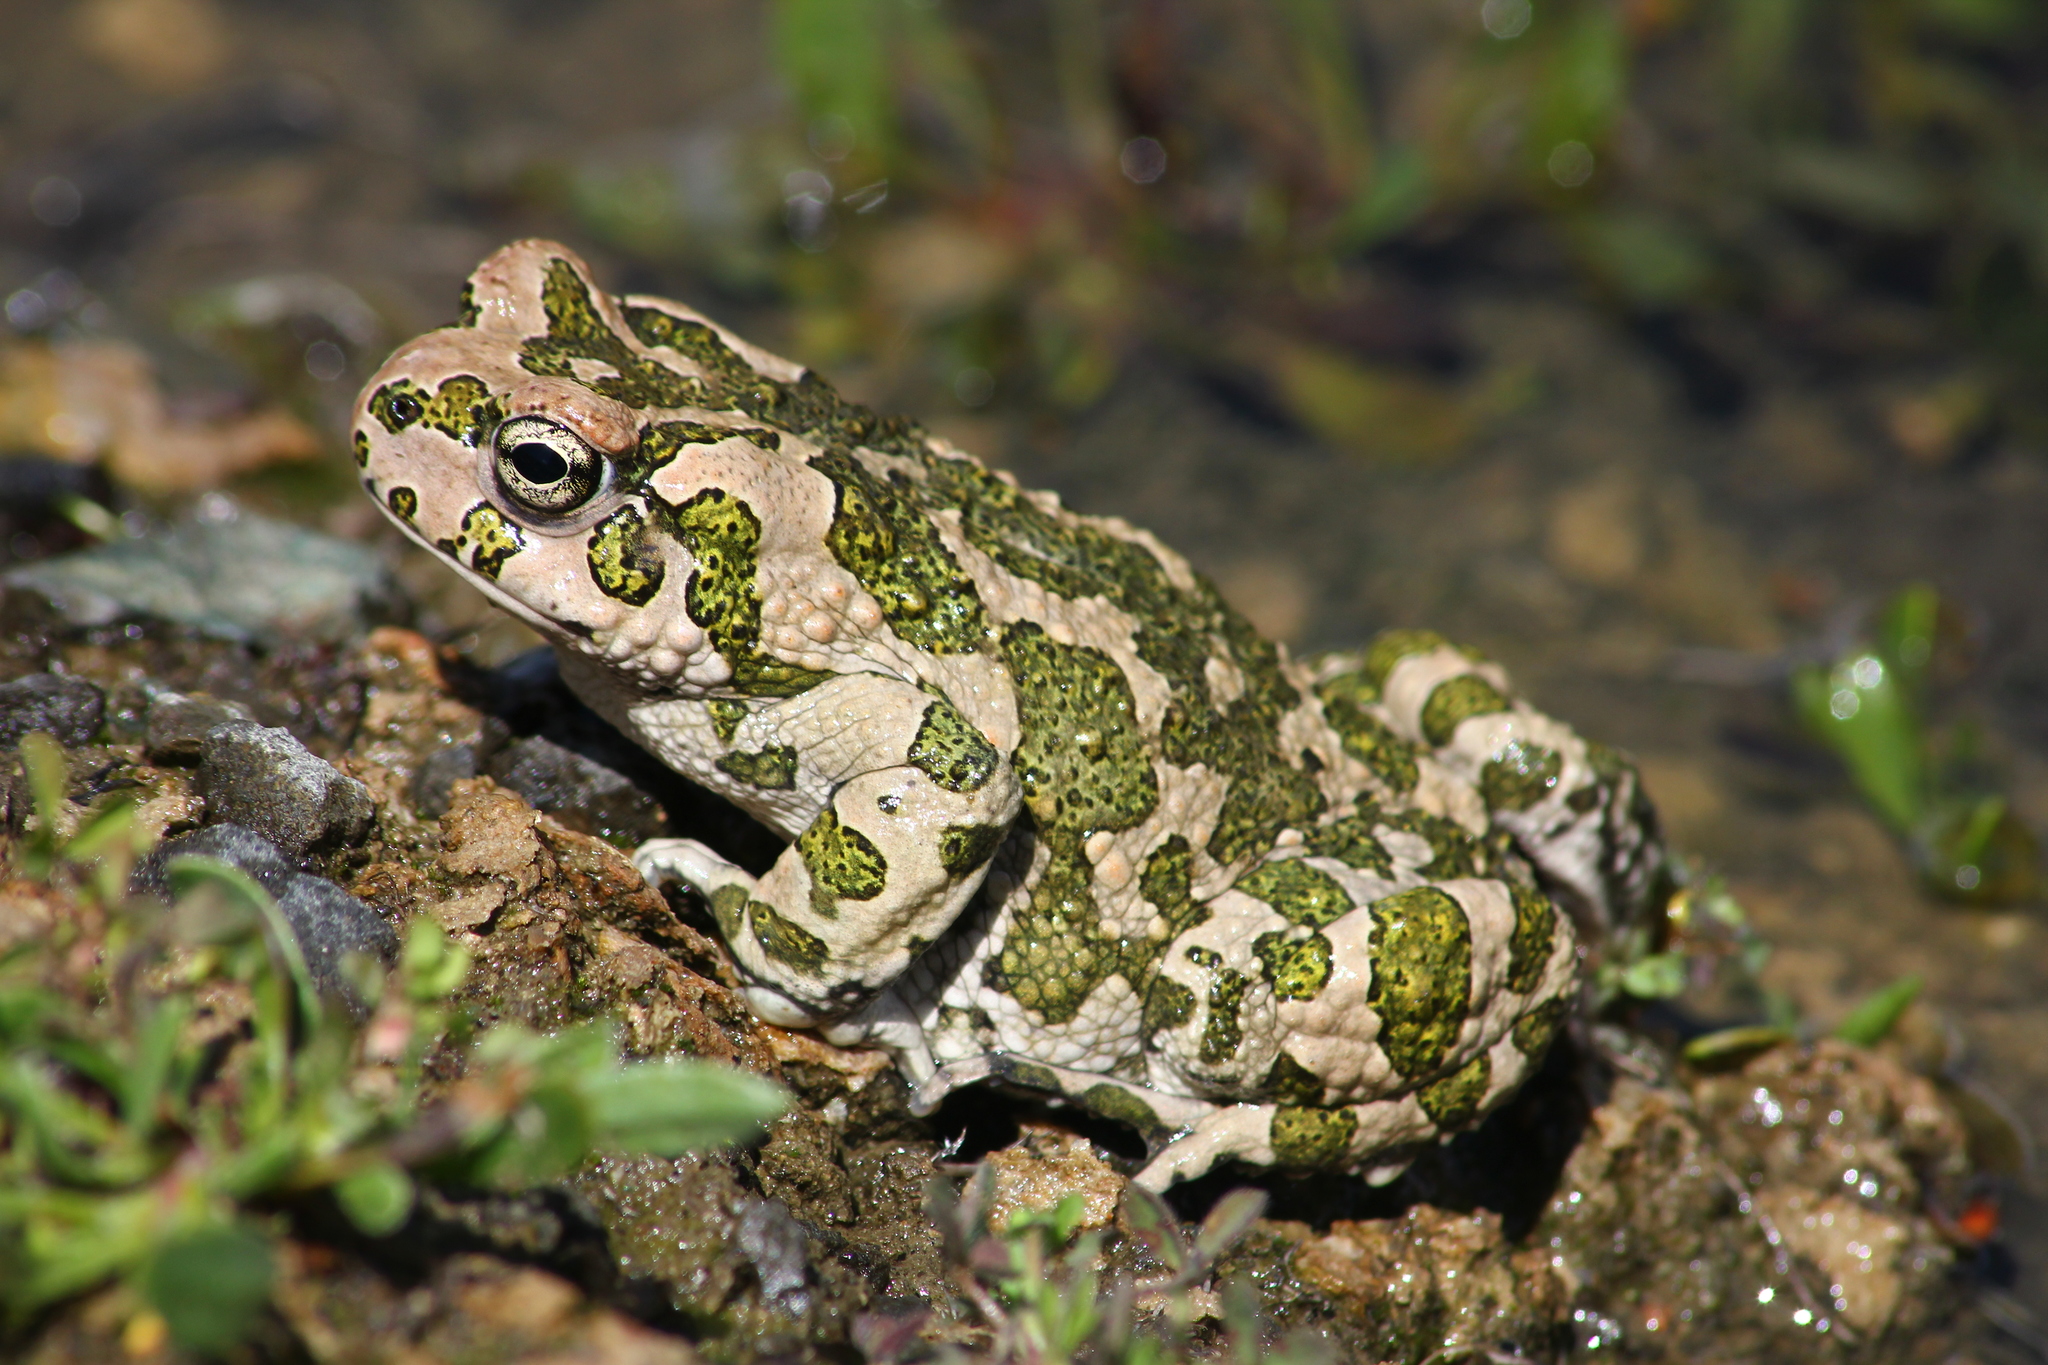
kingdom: Animalia
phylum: Chordata
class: Amphibia
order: Anura
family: Bufonidae
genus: Bufotes
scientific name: Bufotes cypriensis
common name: Cyprus green toad
